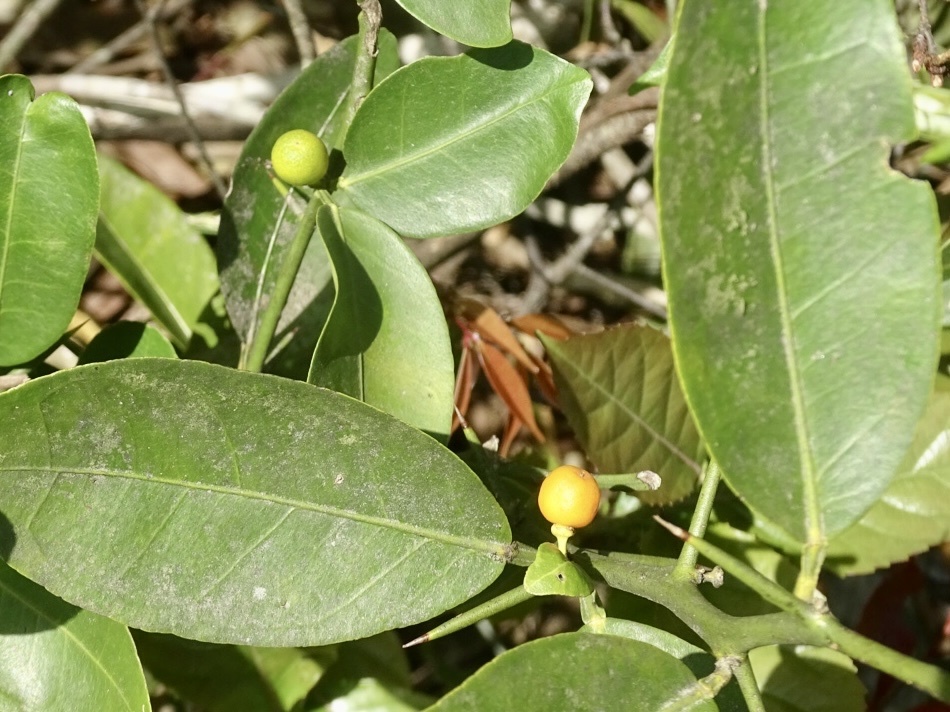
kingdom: Plantae
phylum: Tracheophyta
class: Magnoliopsida
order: Sapindales
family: Rutaceae
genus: Citrus
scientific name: Citrus japonica
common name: Kumquat
